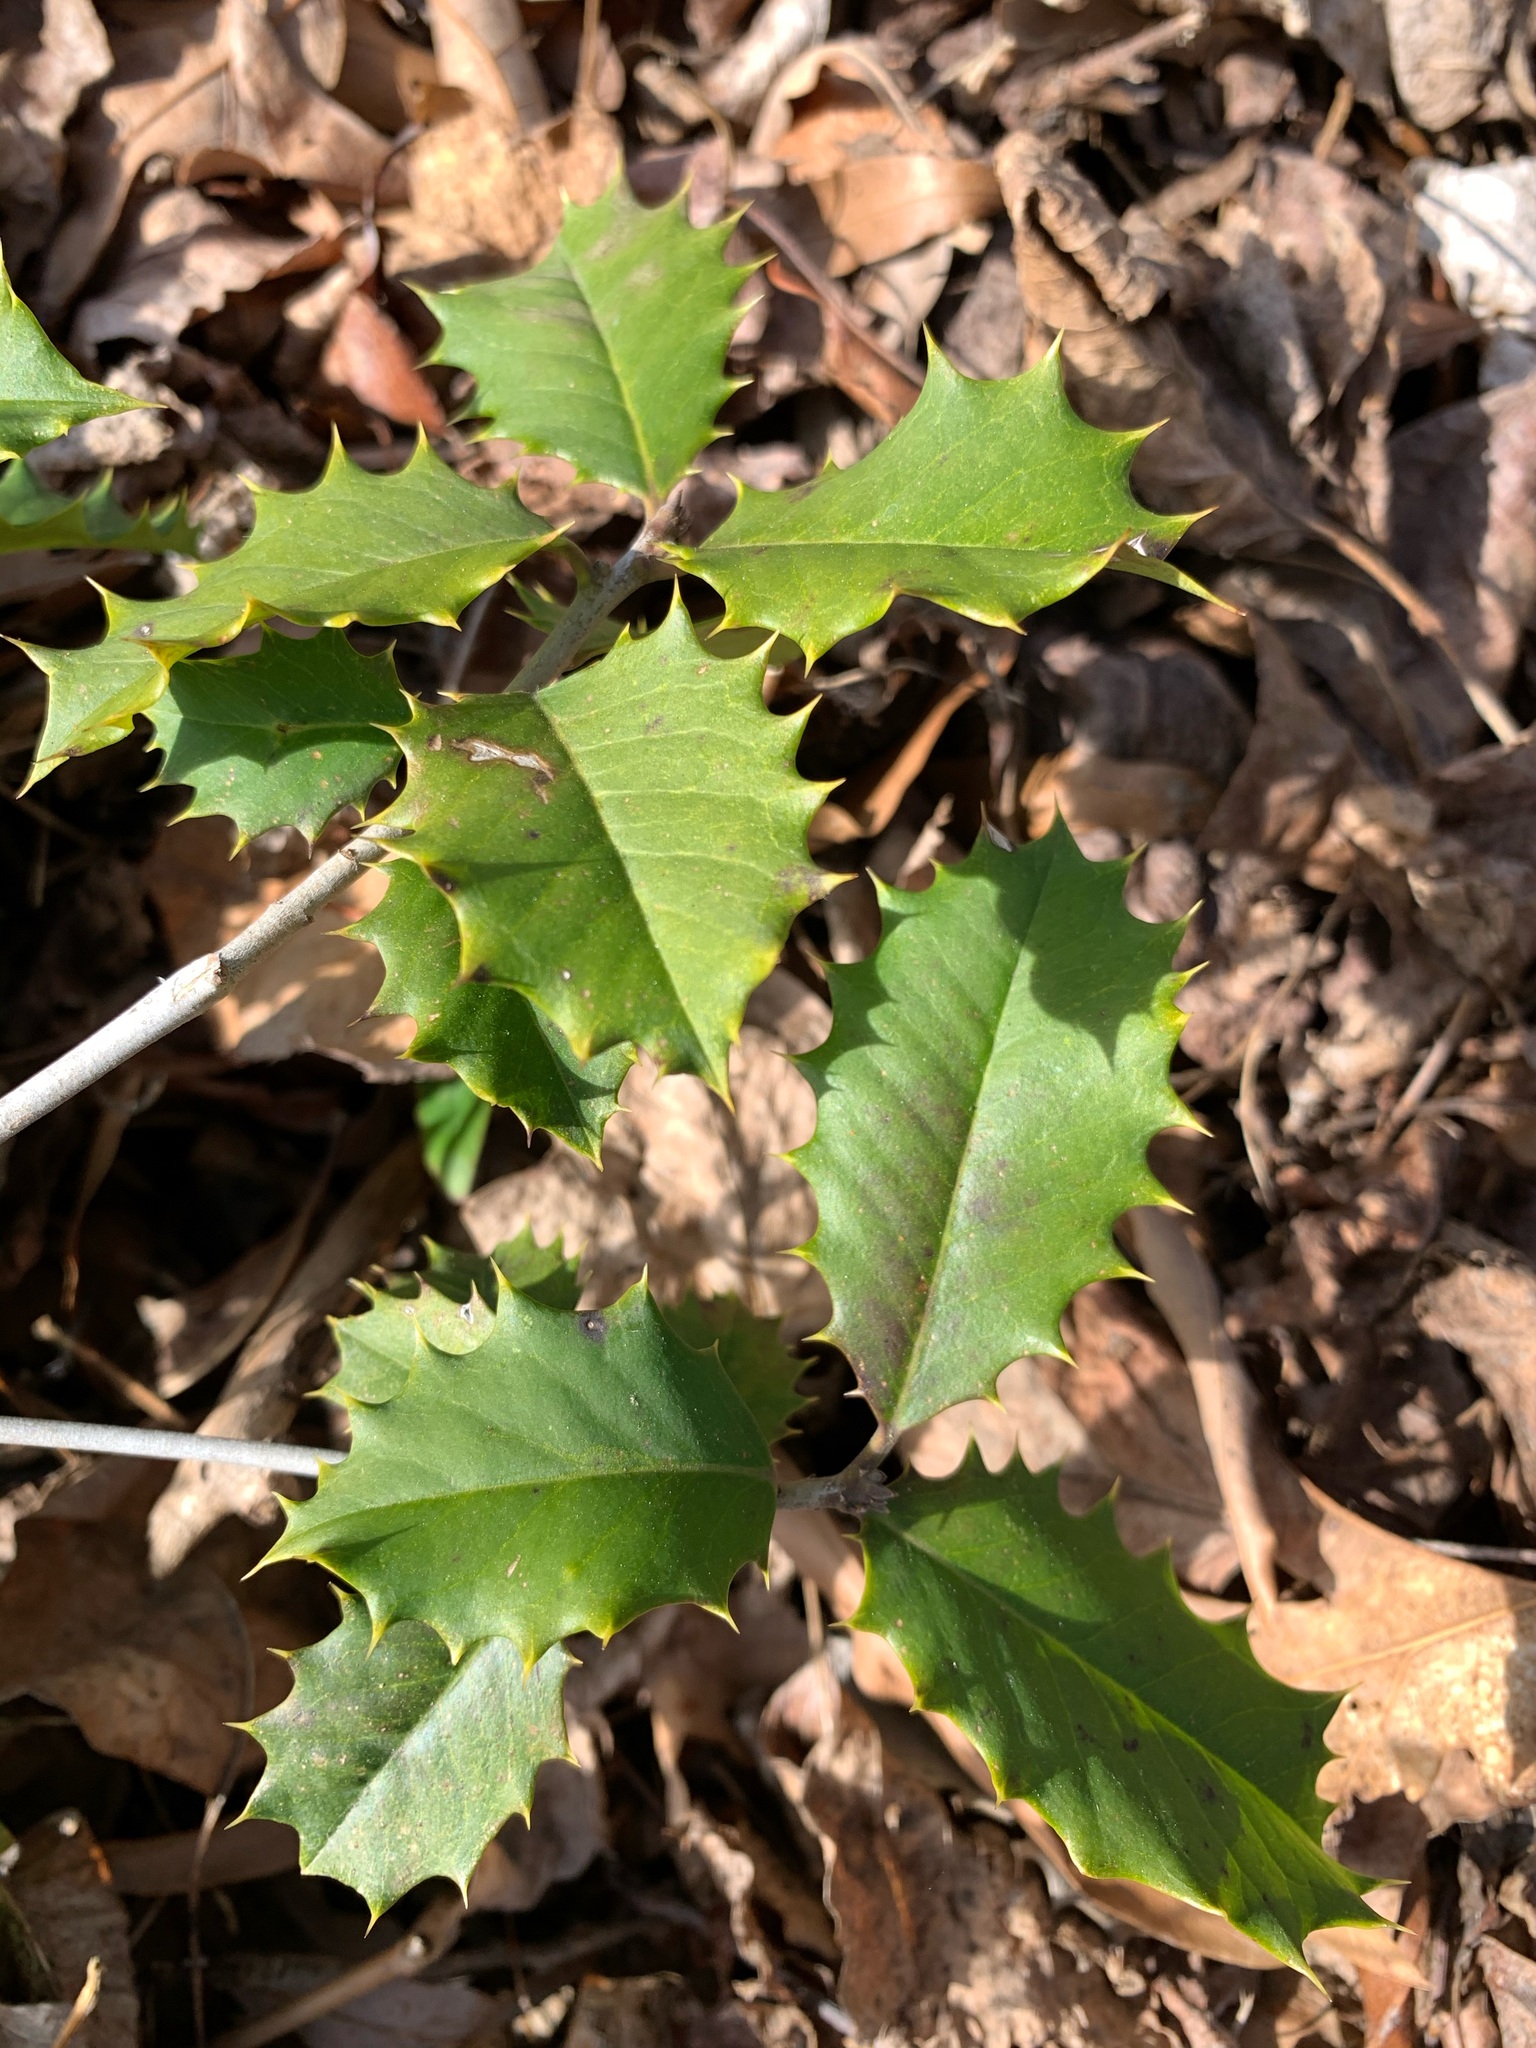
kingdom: Plantae
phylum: Tracheophyta
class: Magnoliopsida
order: Aquifoliales
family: Aquifoliaceae
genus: Ilex
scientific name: Ilex opaca
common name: American holly
